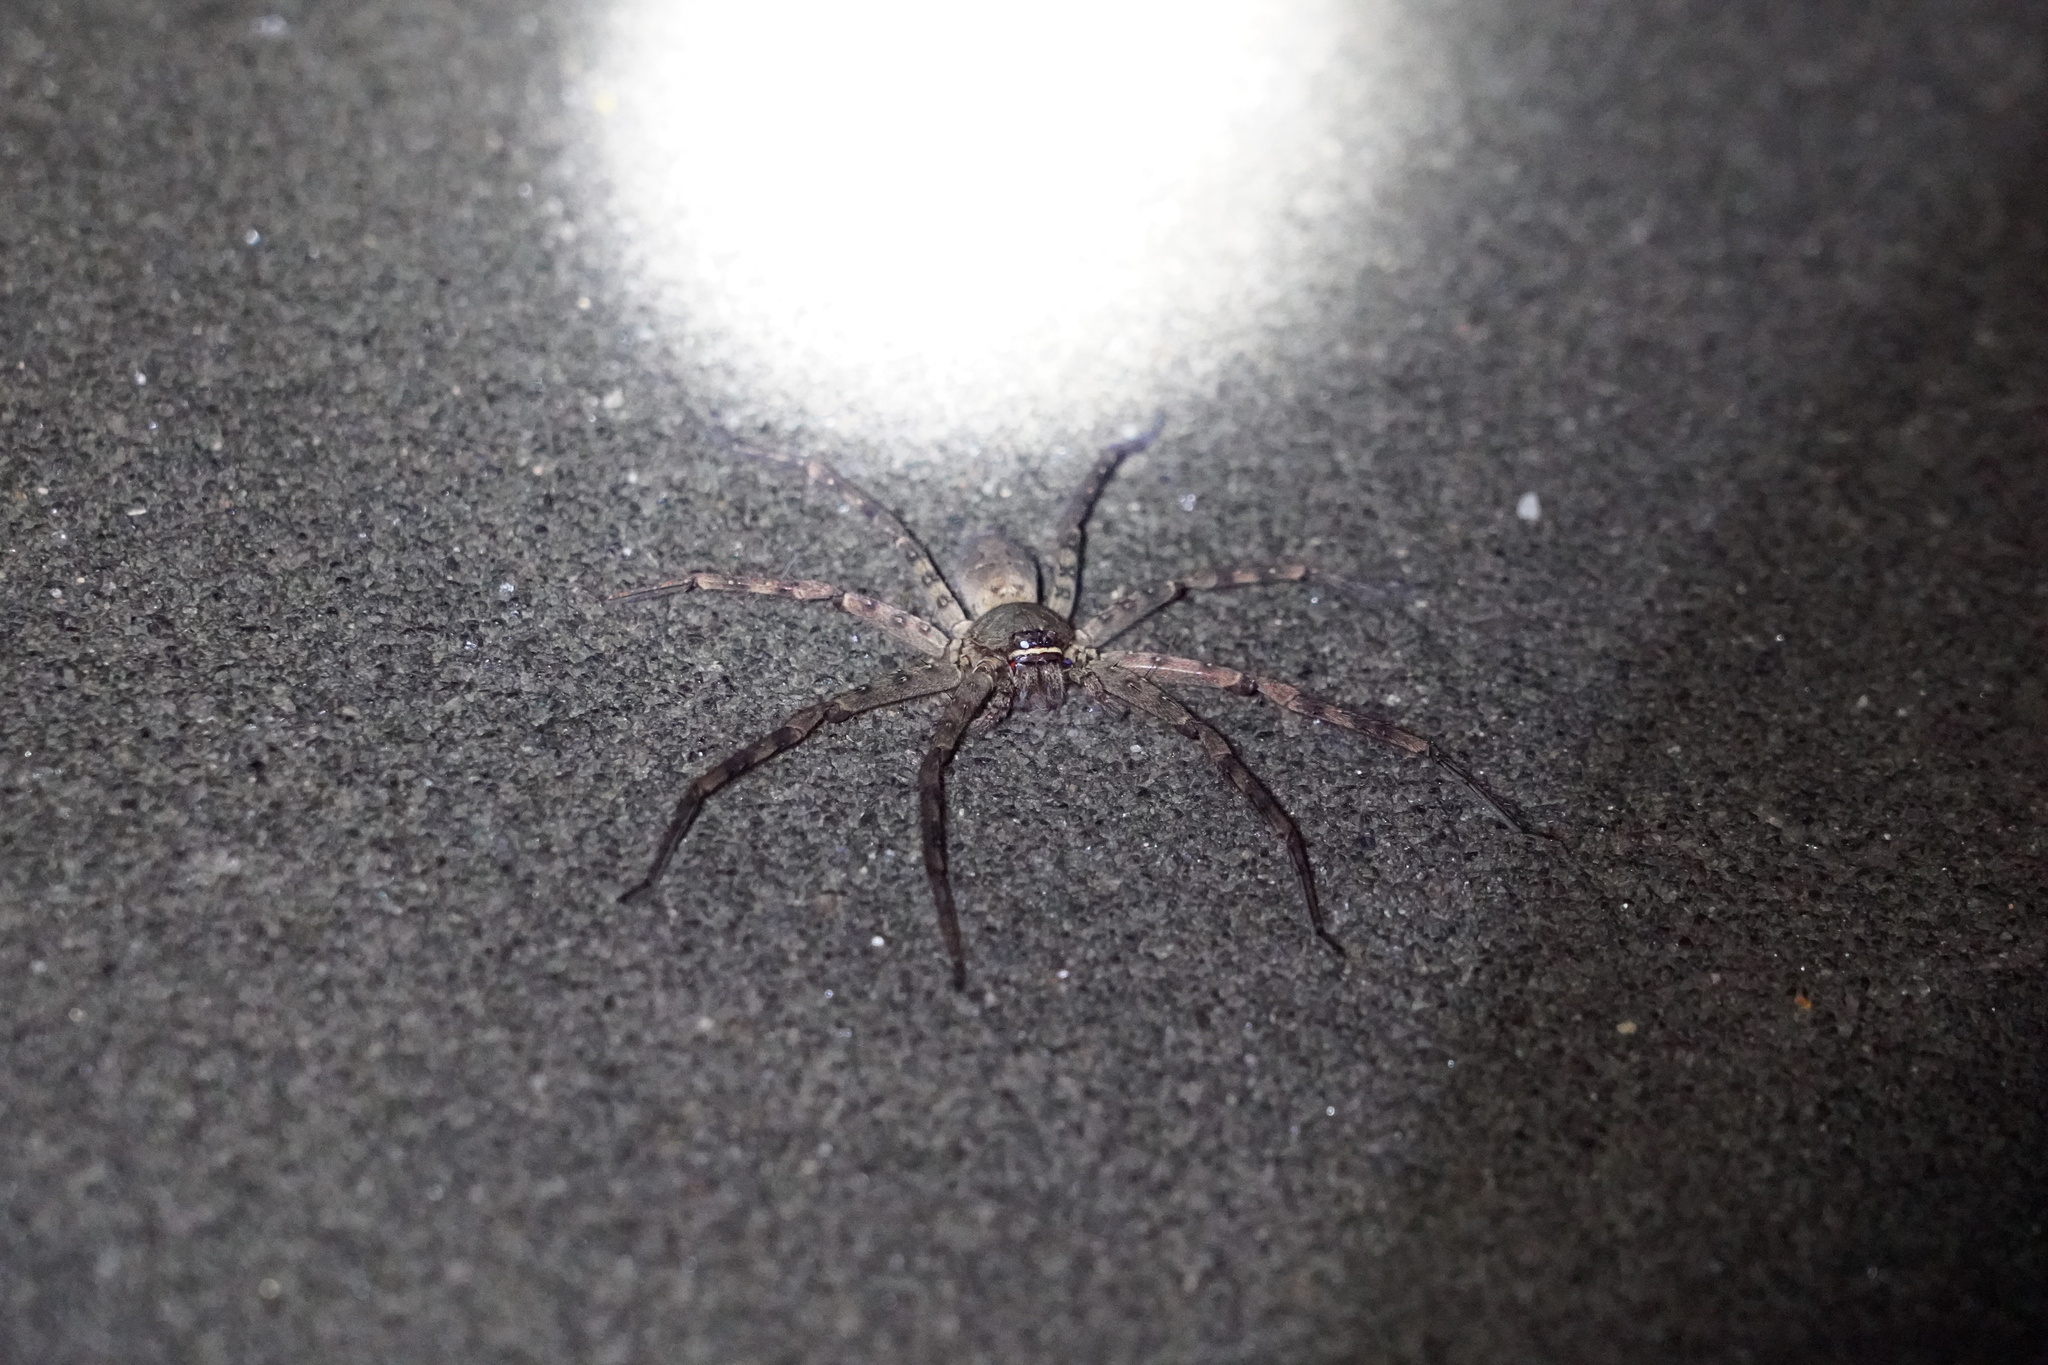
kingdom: Animalia
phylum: Arthropoda
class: Arachnida
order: Araneae
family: Sparassidae
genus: Heteropoda
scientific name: Heteropoda venatoria
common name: Huntsman spider
